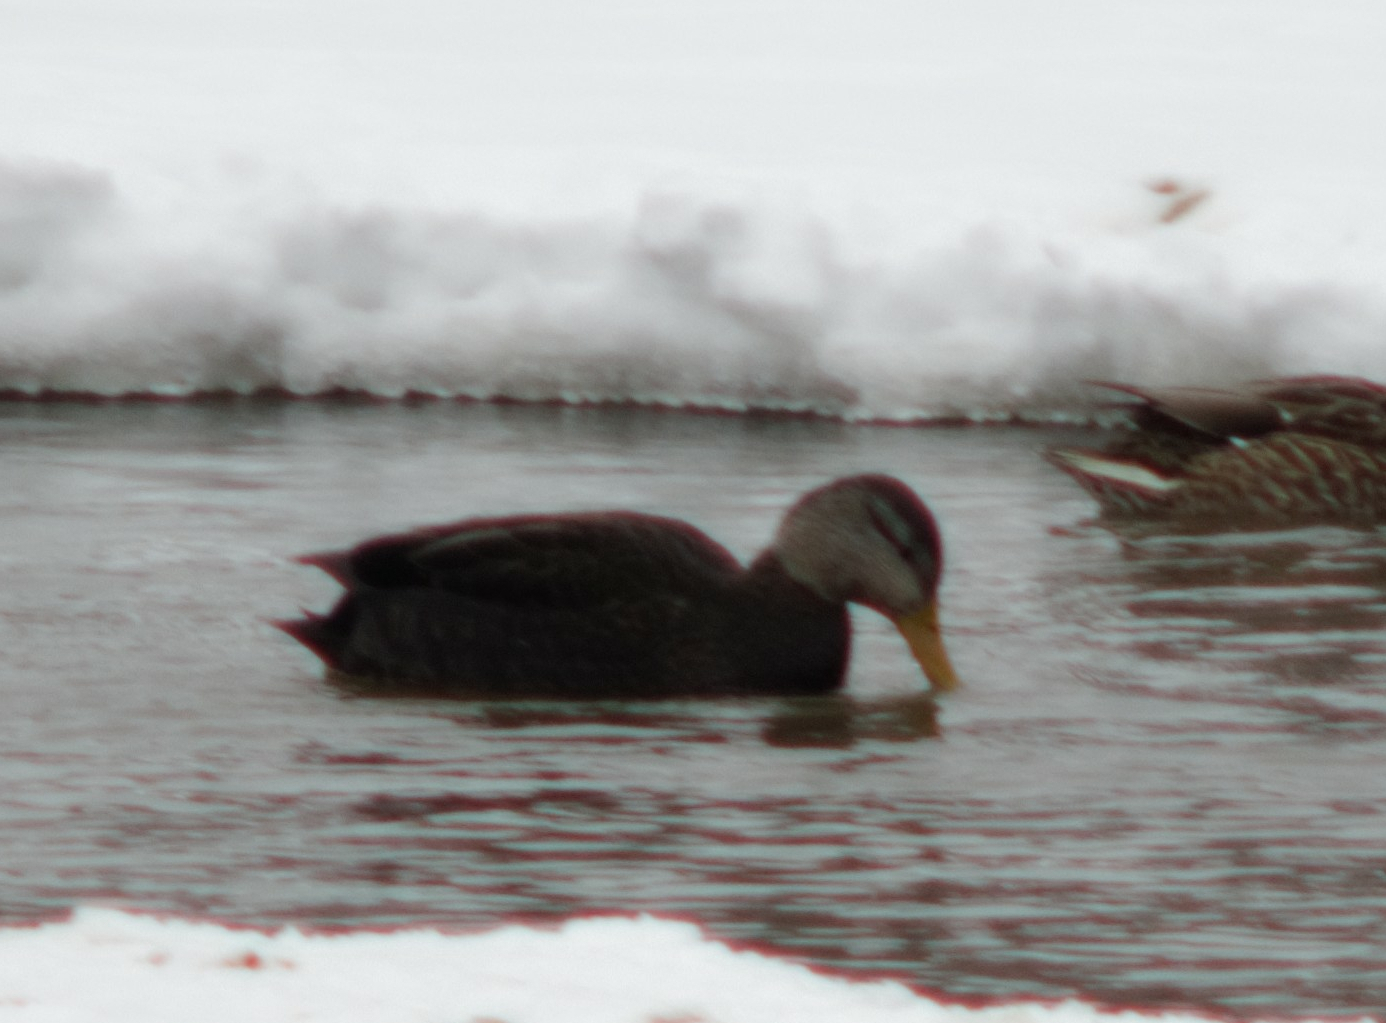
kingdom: Animalia
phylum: Chordata
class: Aves
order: Anseriformes
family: Anatidae
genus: Anas
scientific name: Anas rubripes
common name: American black duck
